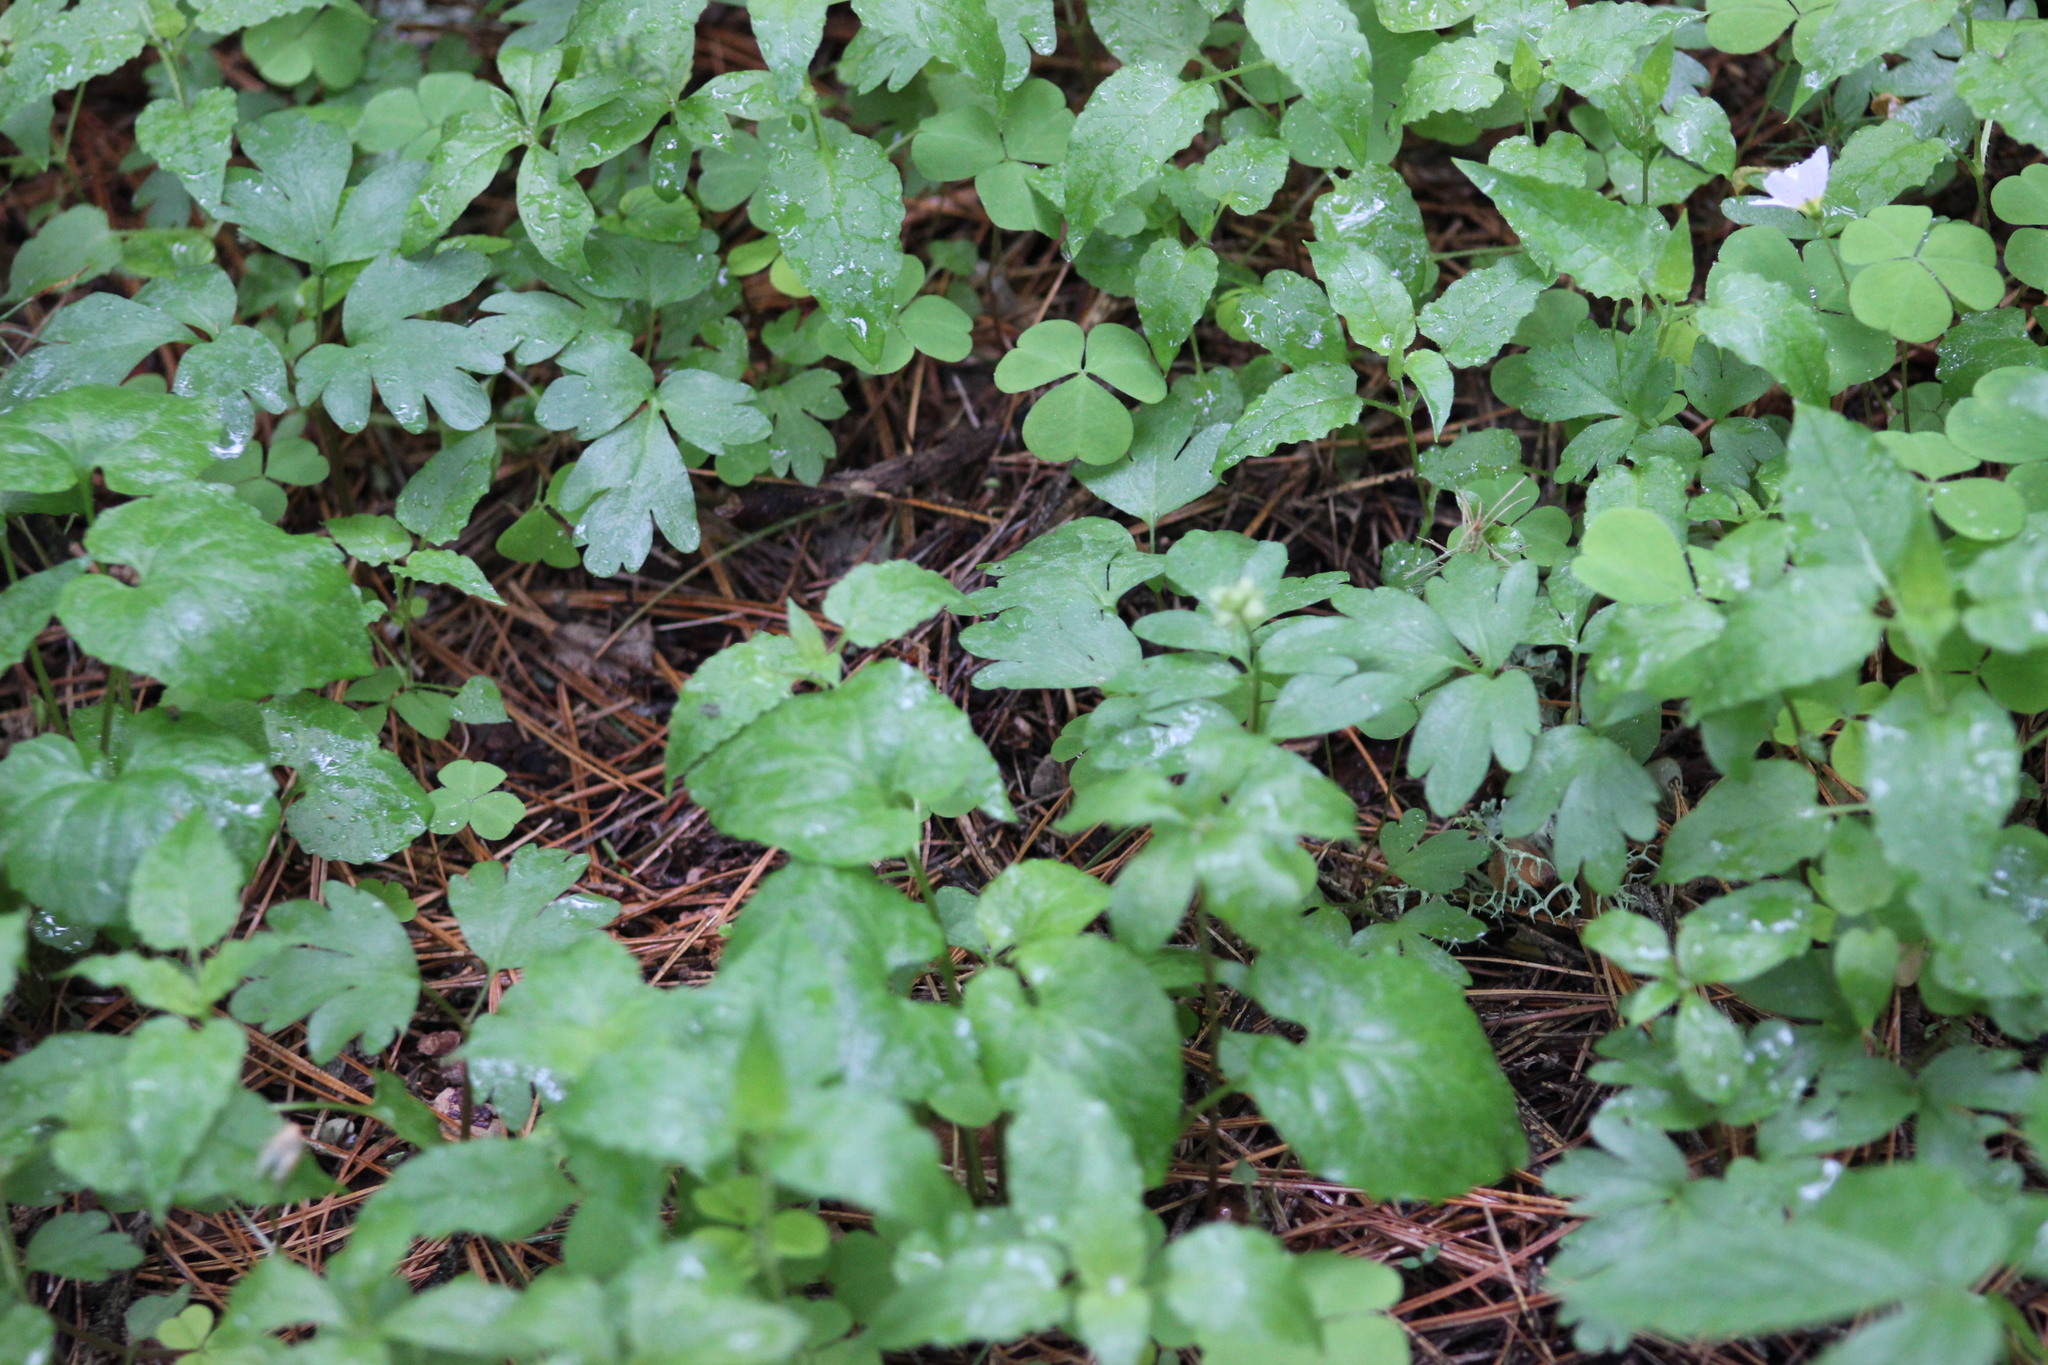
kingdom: Plantae
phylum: Tracheophyta
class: Magnoliopsida
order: Dipsacales
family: Viburnaceae
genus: Adoxa
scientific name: Adoxa moschatellina
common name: Moschatel
